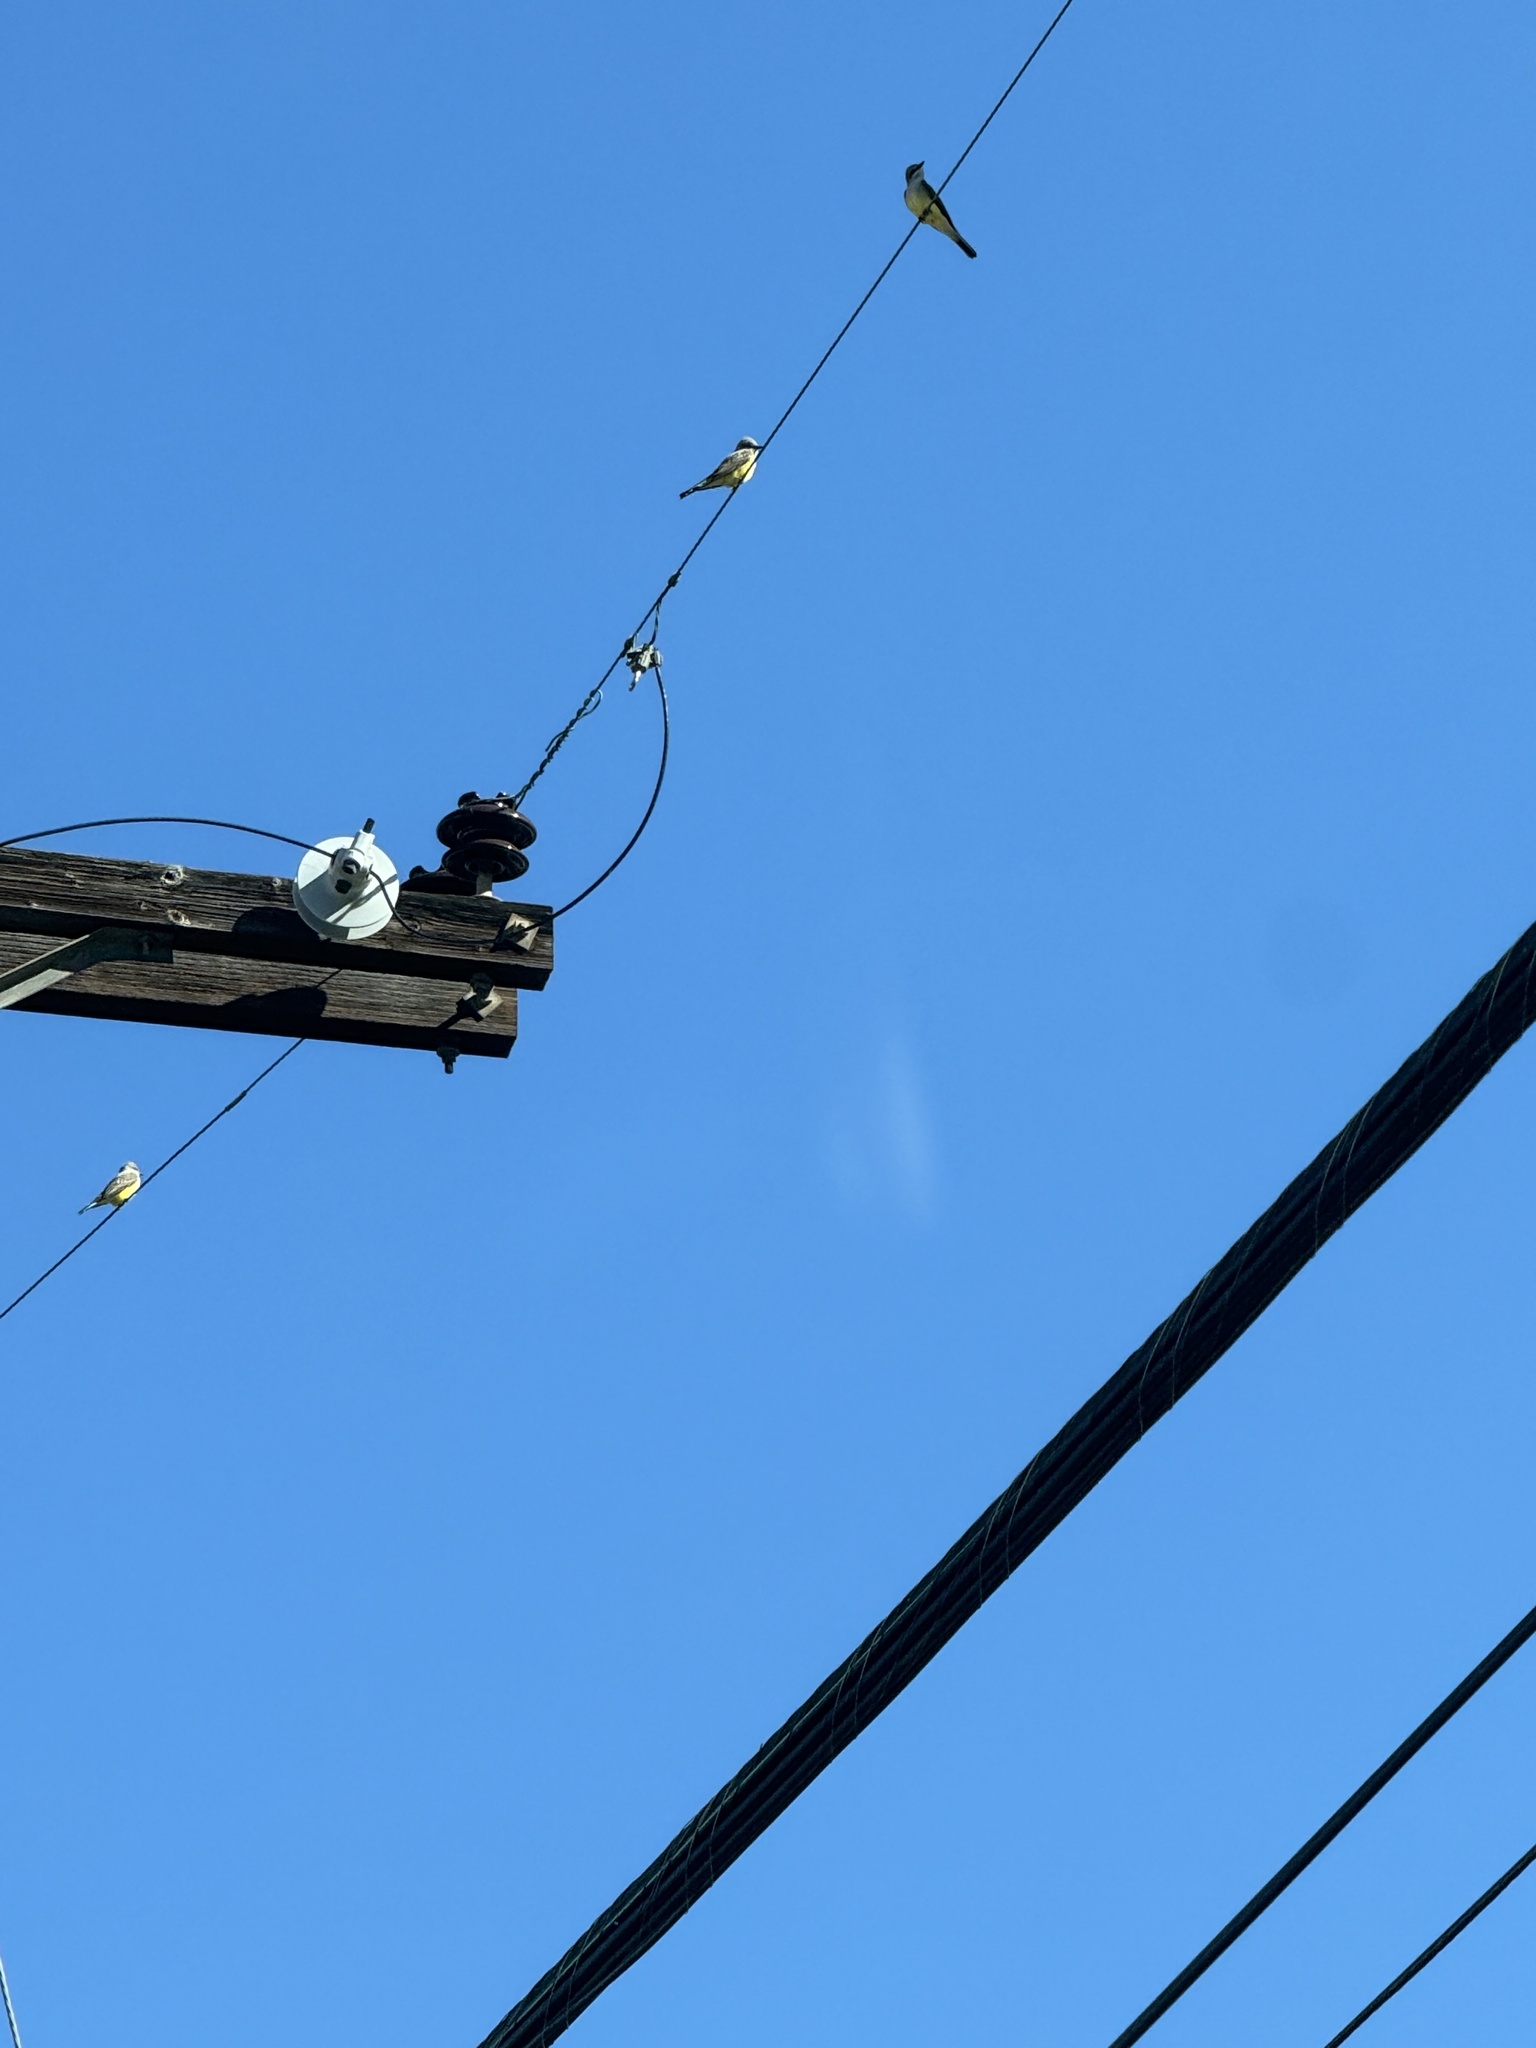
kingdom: Animalia
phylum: Chordata
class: Aves
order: Passeriformes
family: Tyrannidae
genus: Tyrannus
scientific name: Tyrannus verticalis
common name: Western kingbird
